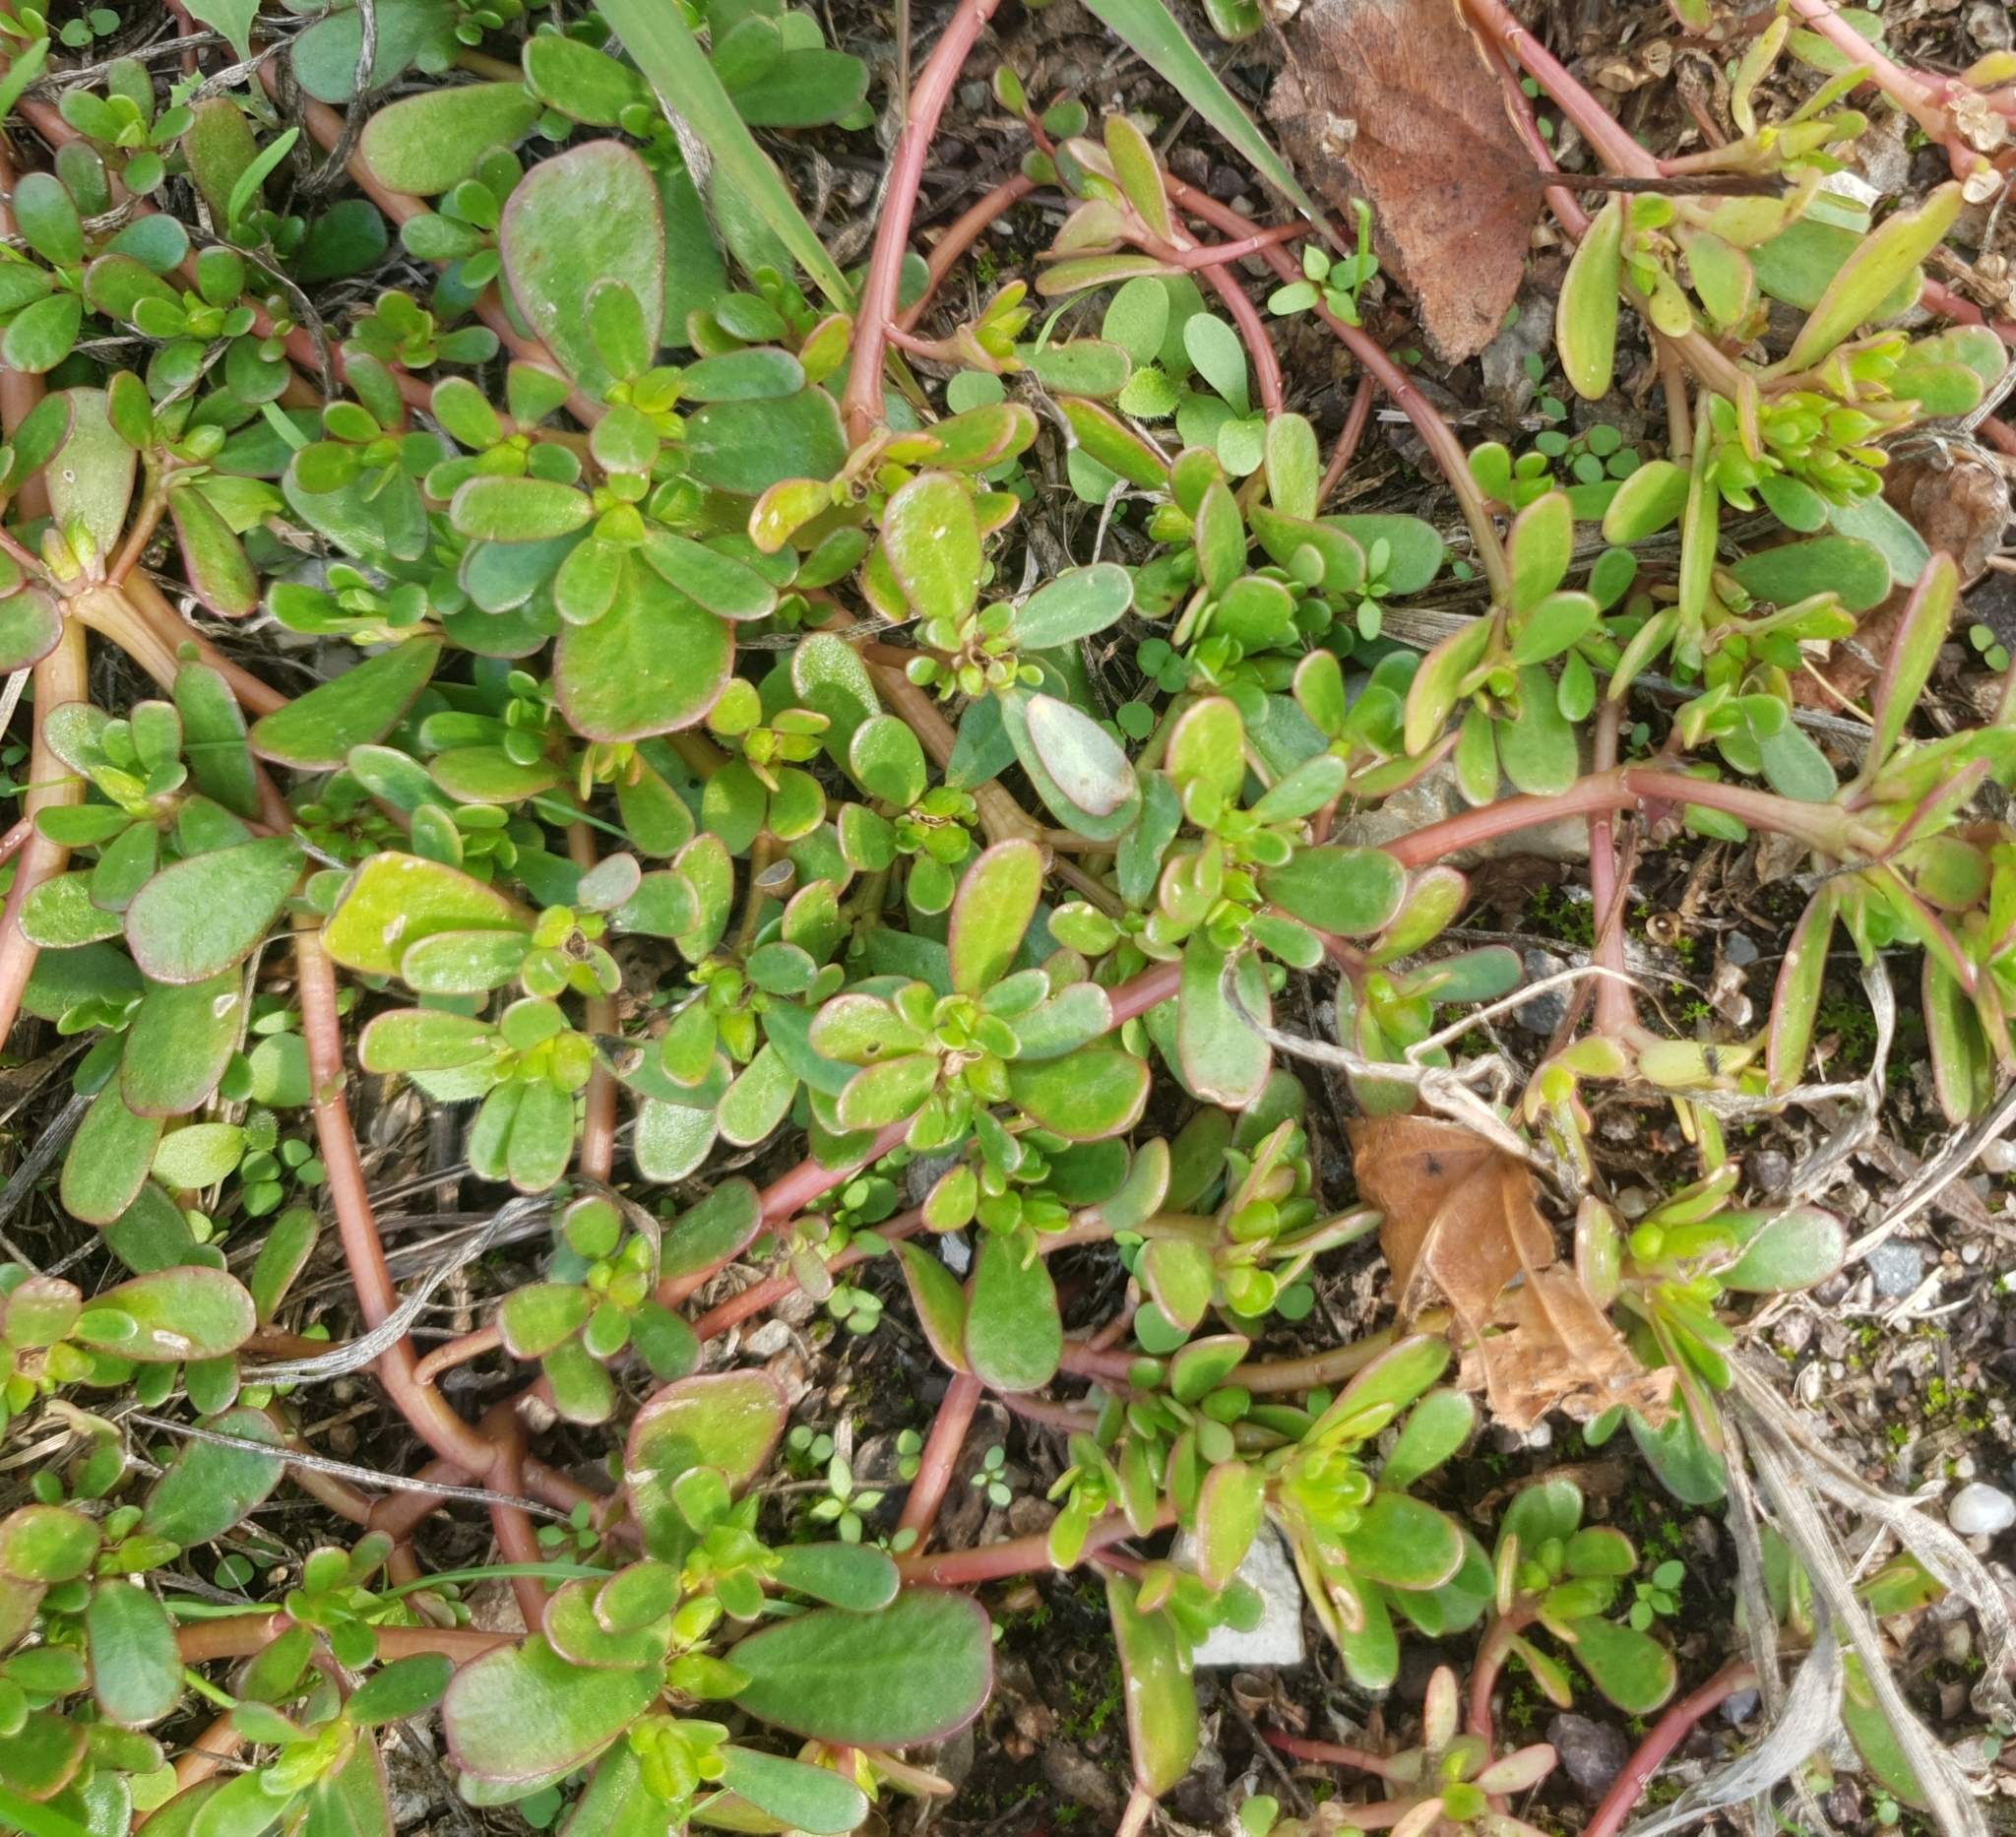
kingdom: Plantae
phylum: Tracheophyta
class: Magnoliopsida
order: Caryophyllales
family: Portulacaceae
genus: Portulaca
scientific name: Portulaca oleracea
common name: Common purslane
